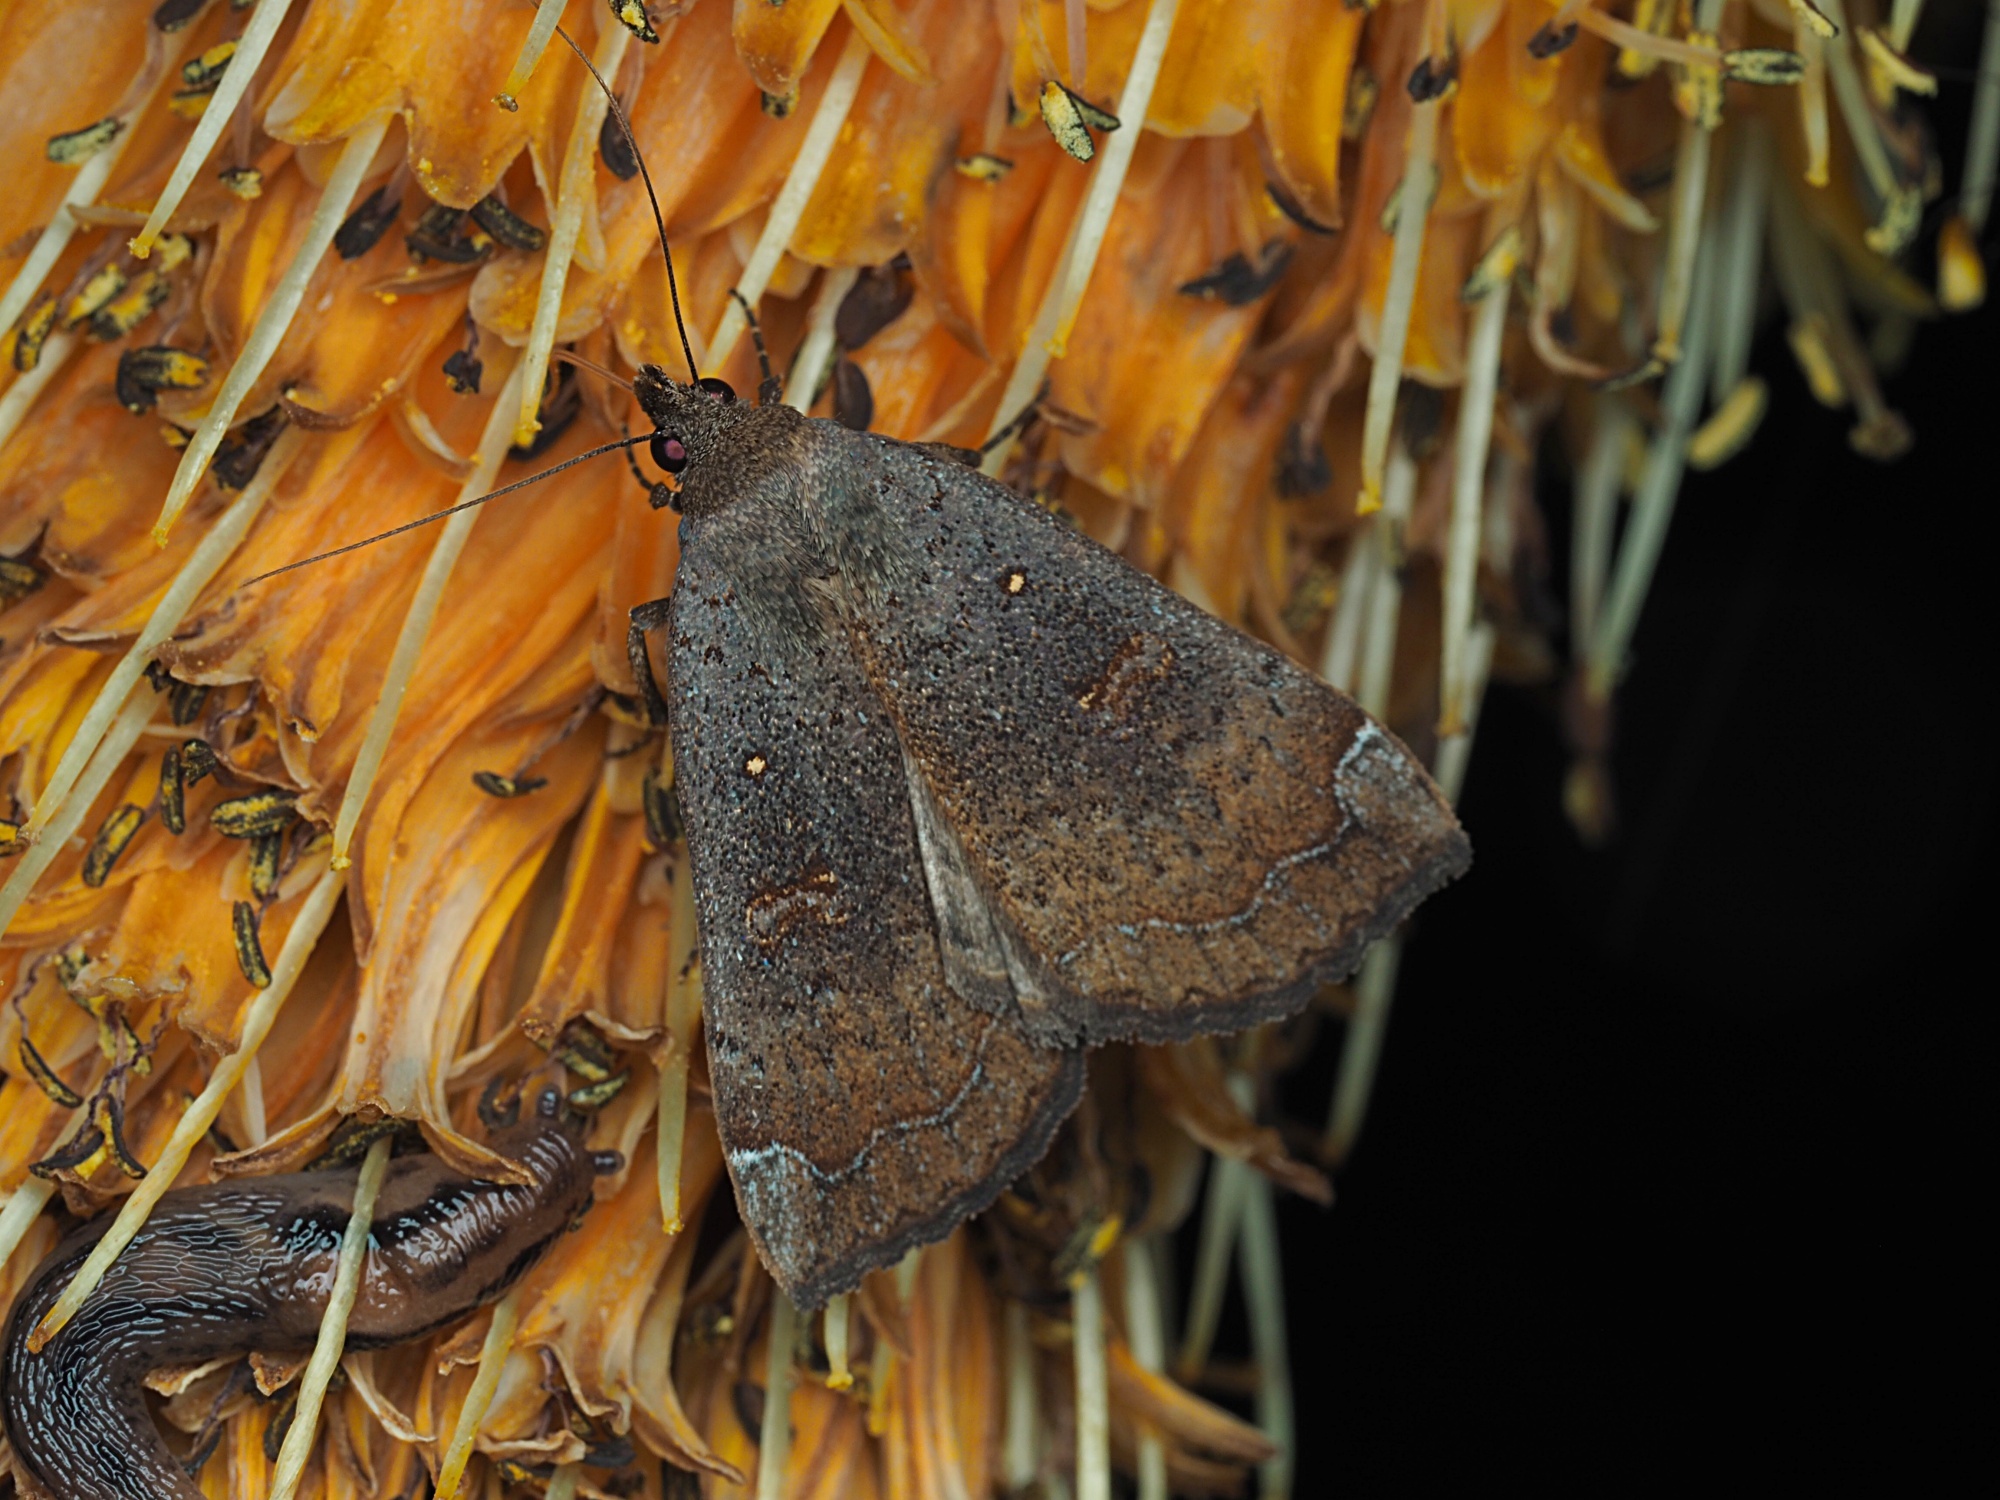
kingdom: Animalia
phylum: Arthropoda
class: Insecta
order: Lepidoptera
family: Erebidae
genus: Rhapsa
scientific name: Rhapsa scotosialis
